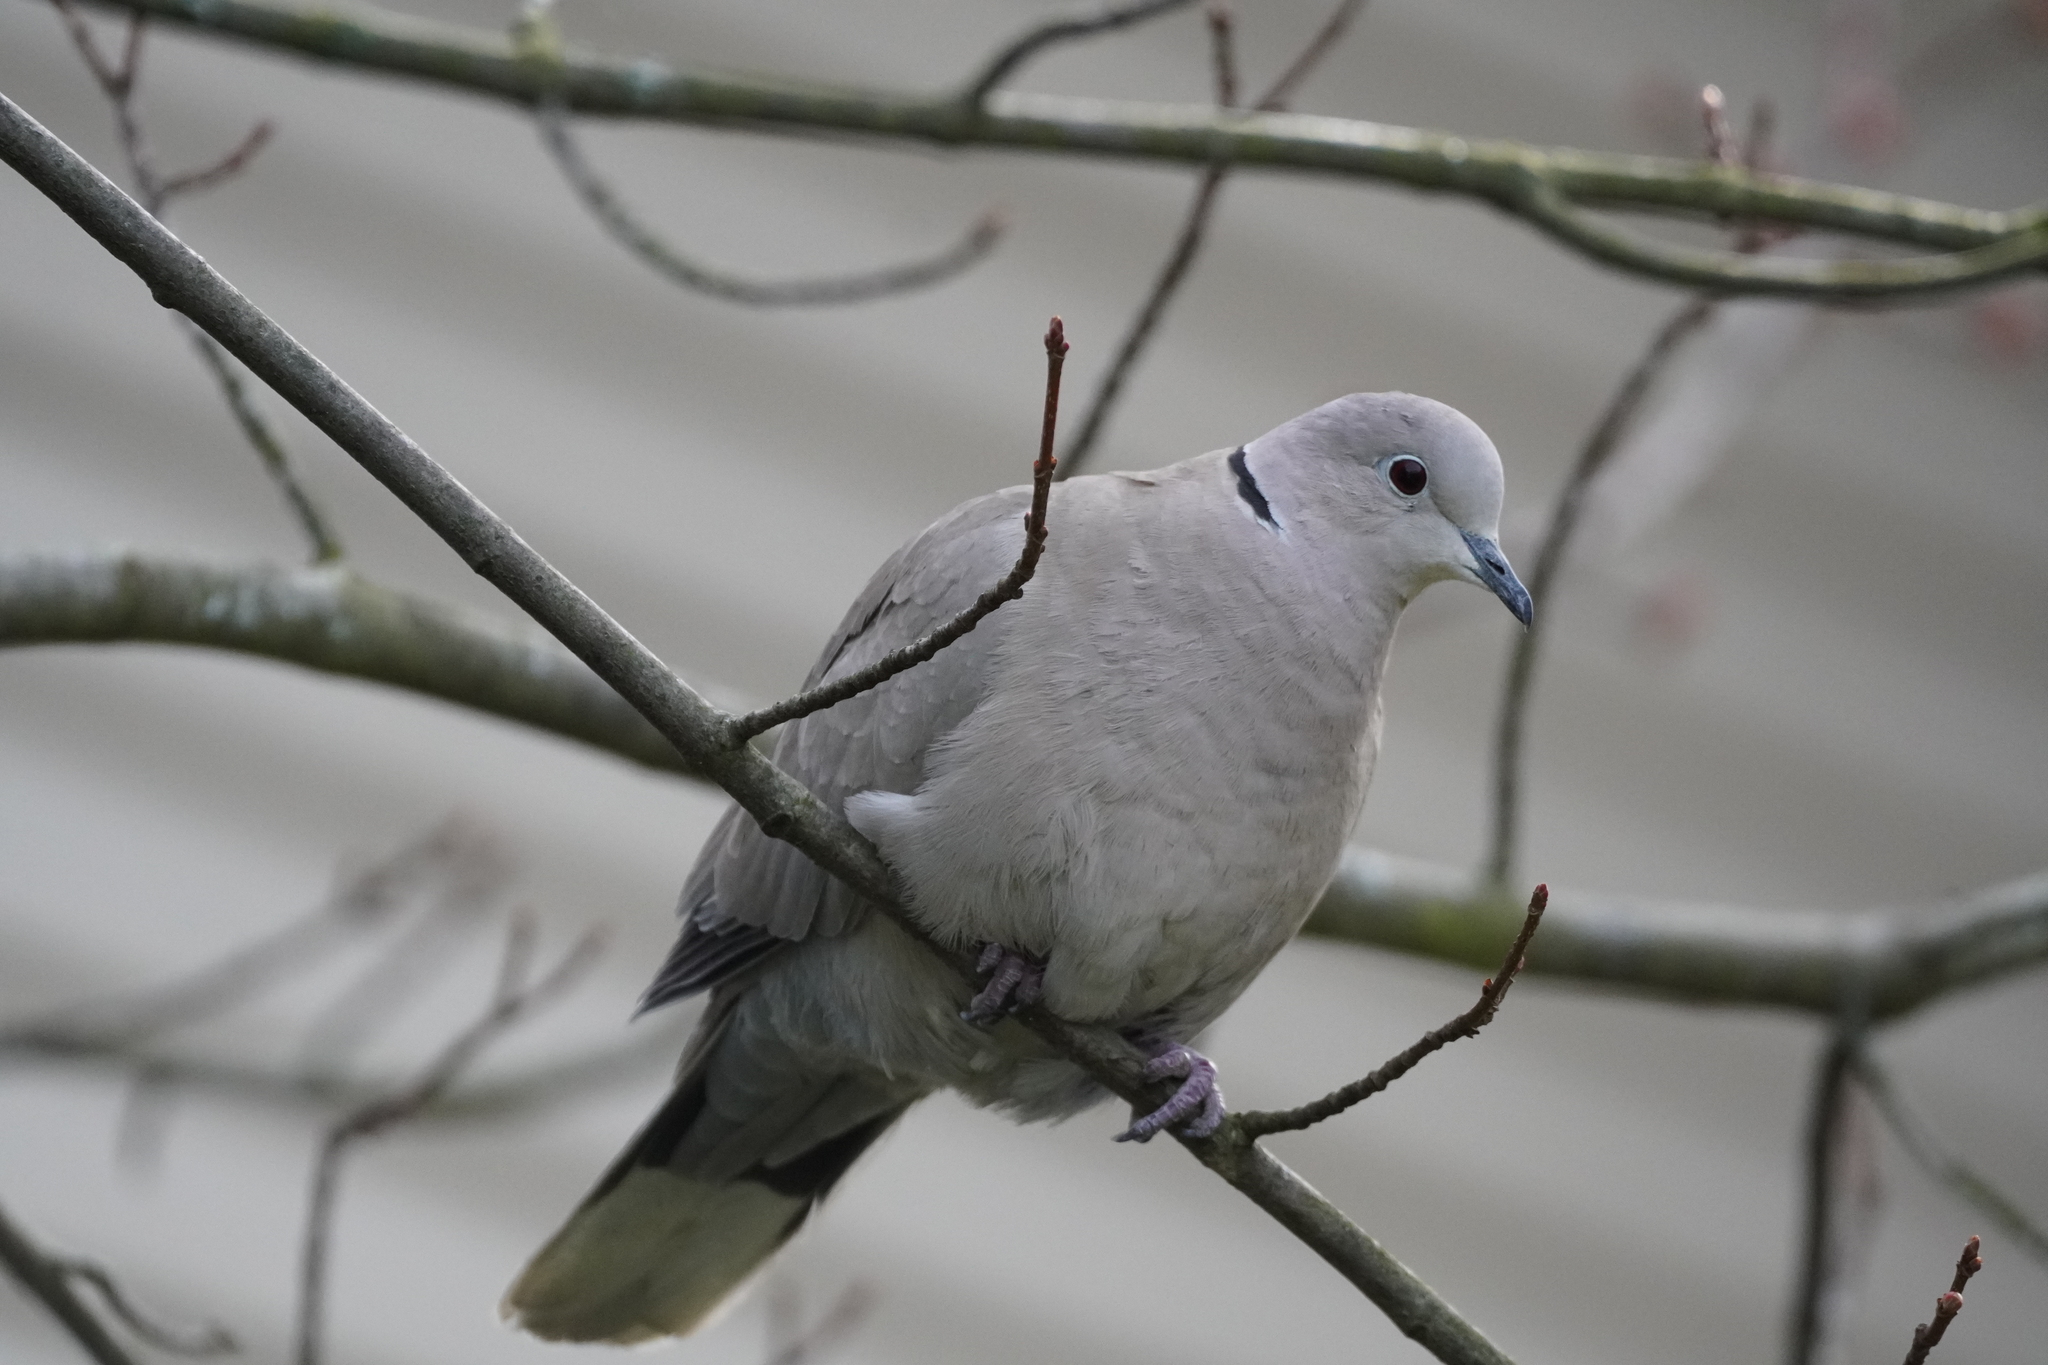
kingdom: Animalia
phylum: Chordata
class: Aves
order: Columbiformes
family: Columbidae
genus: Streptopelia
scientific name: Streptopelia decaocto
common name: Eurasian collared dove
